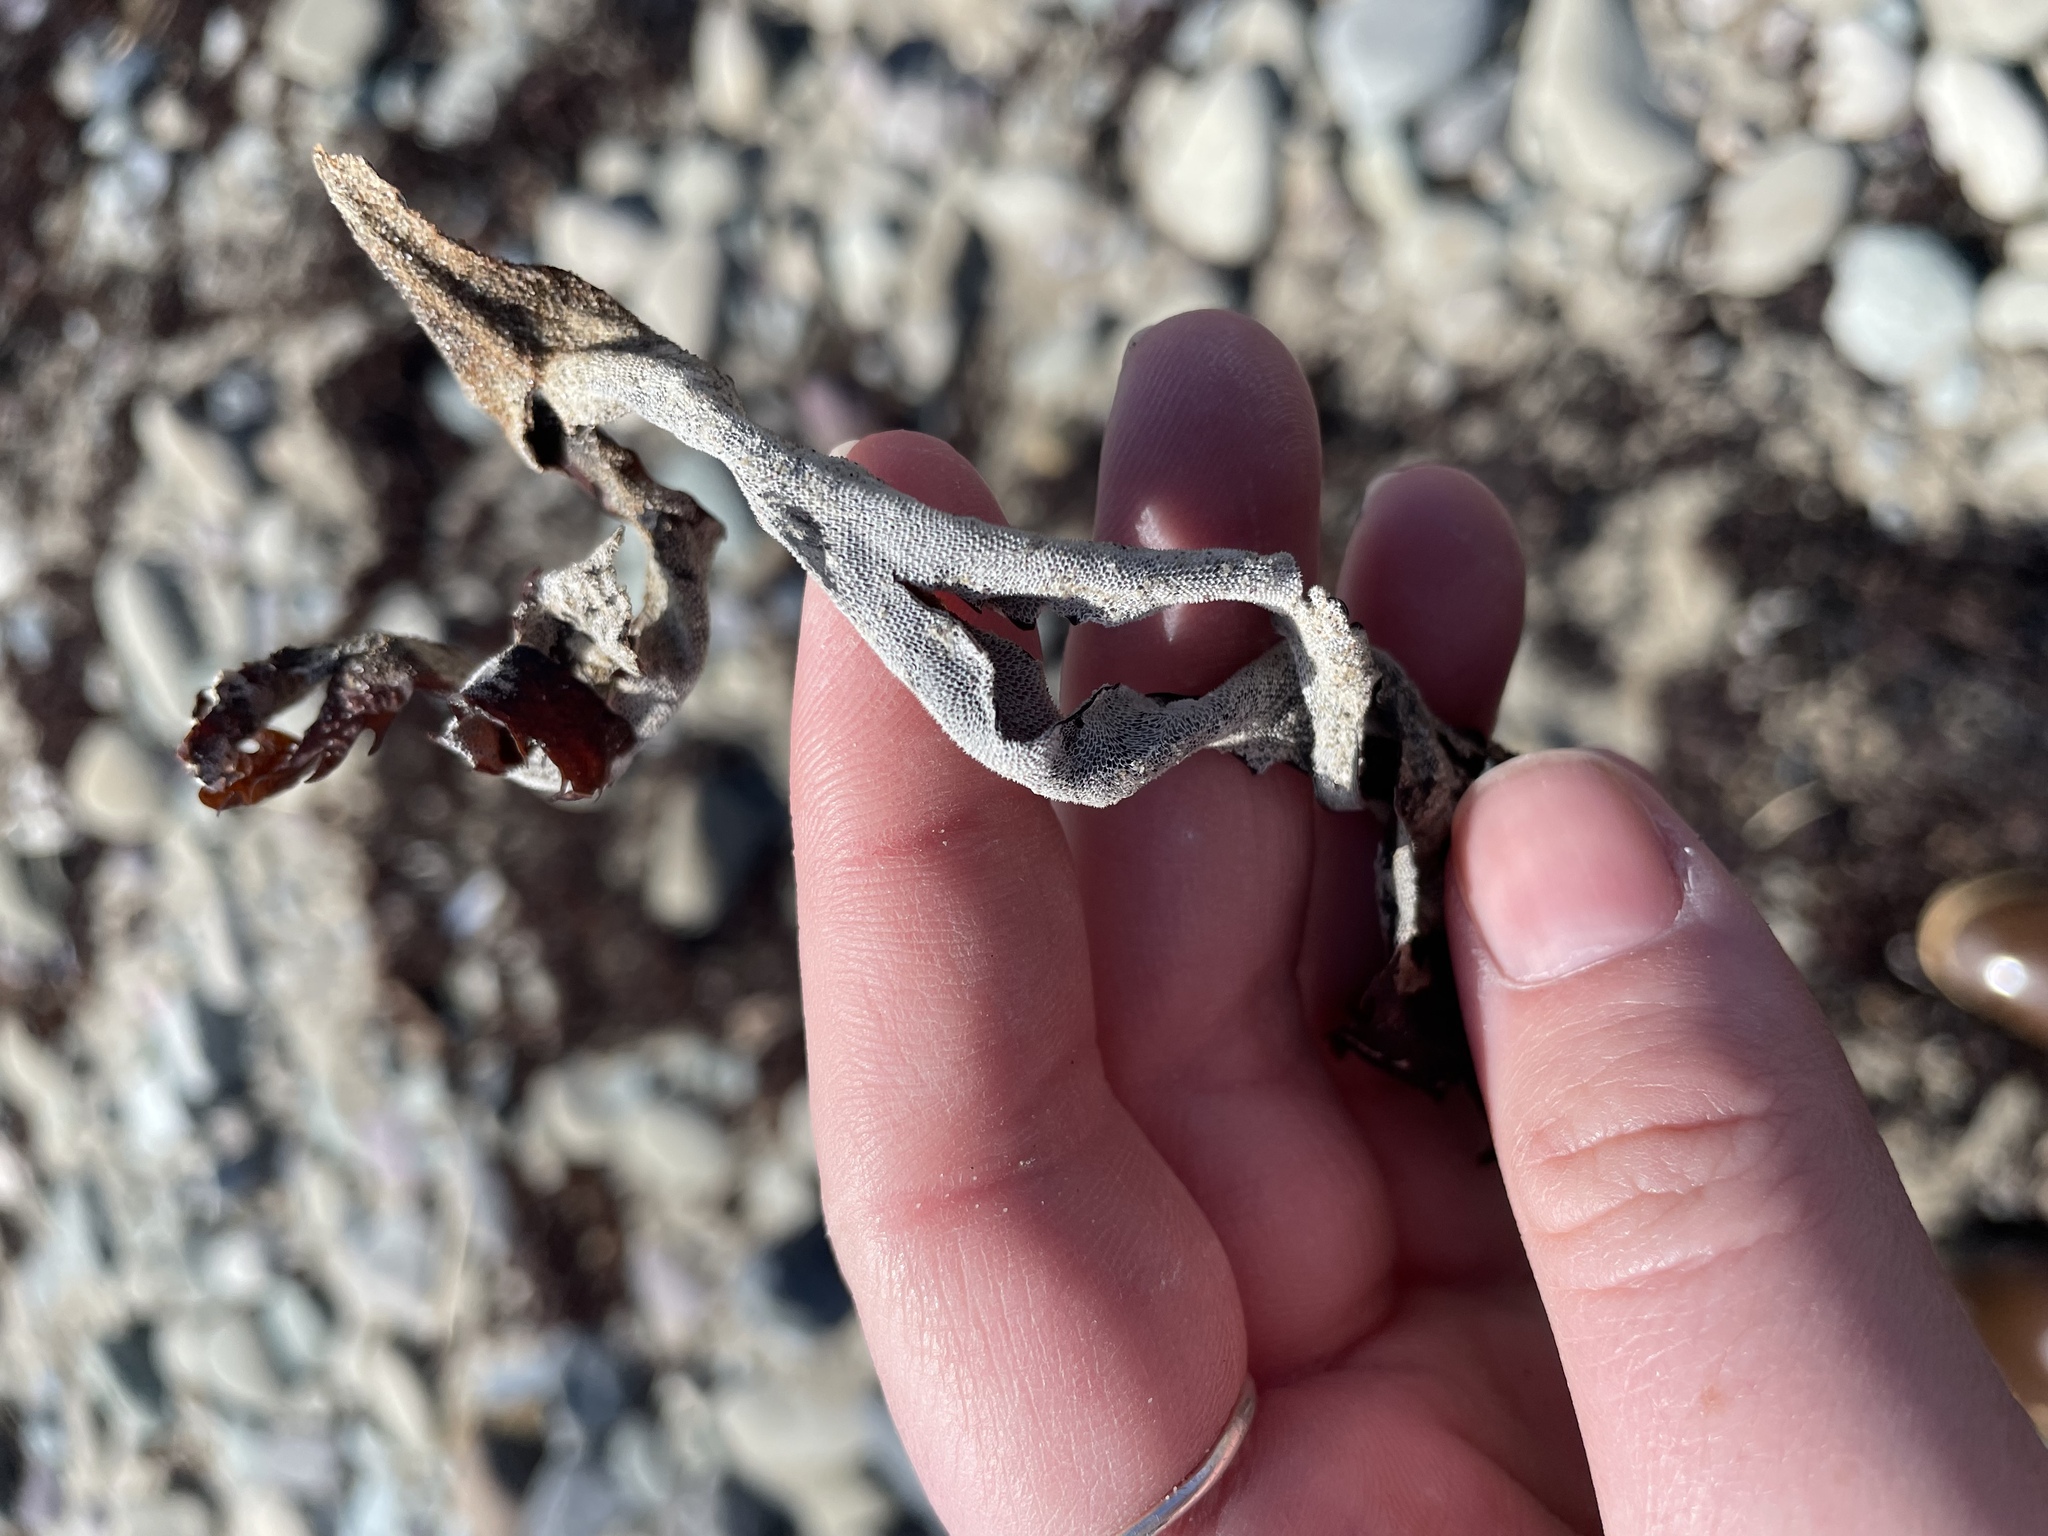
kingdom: Animalia
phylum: Bryozoa
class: Gymnolaemata
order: Cheilostomatida
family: Membraniporidae
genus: Membranipora
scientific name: Membranipora membranacea
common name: Sea mat
